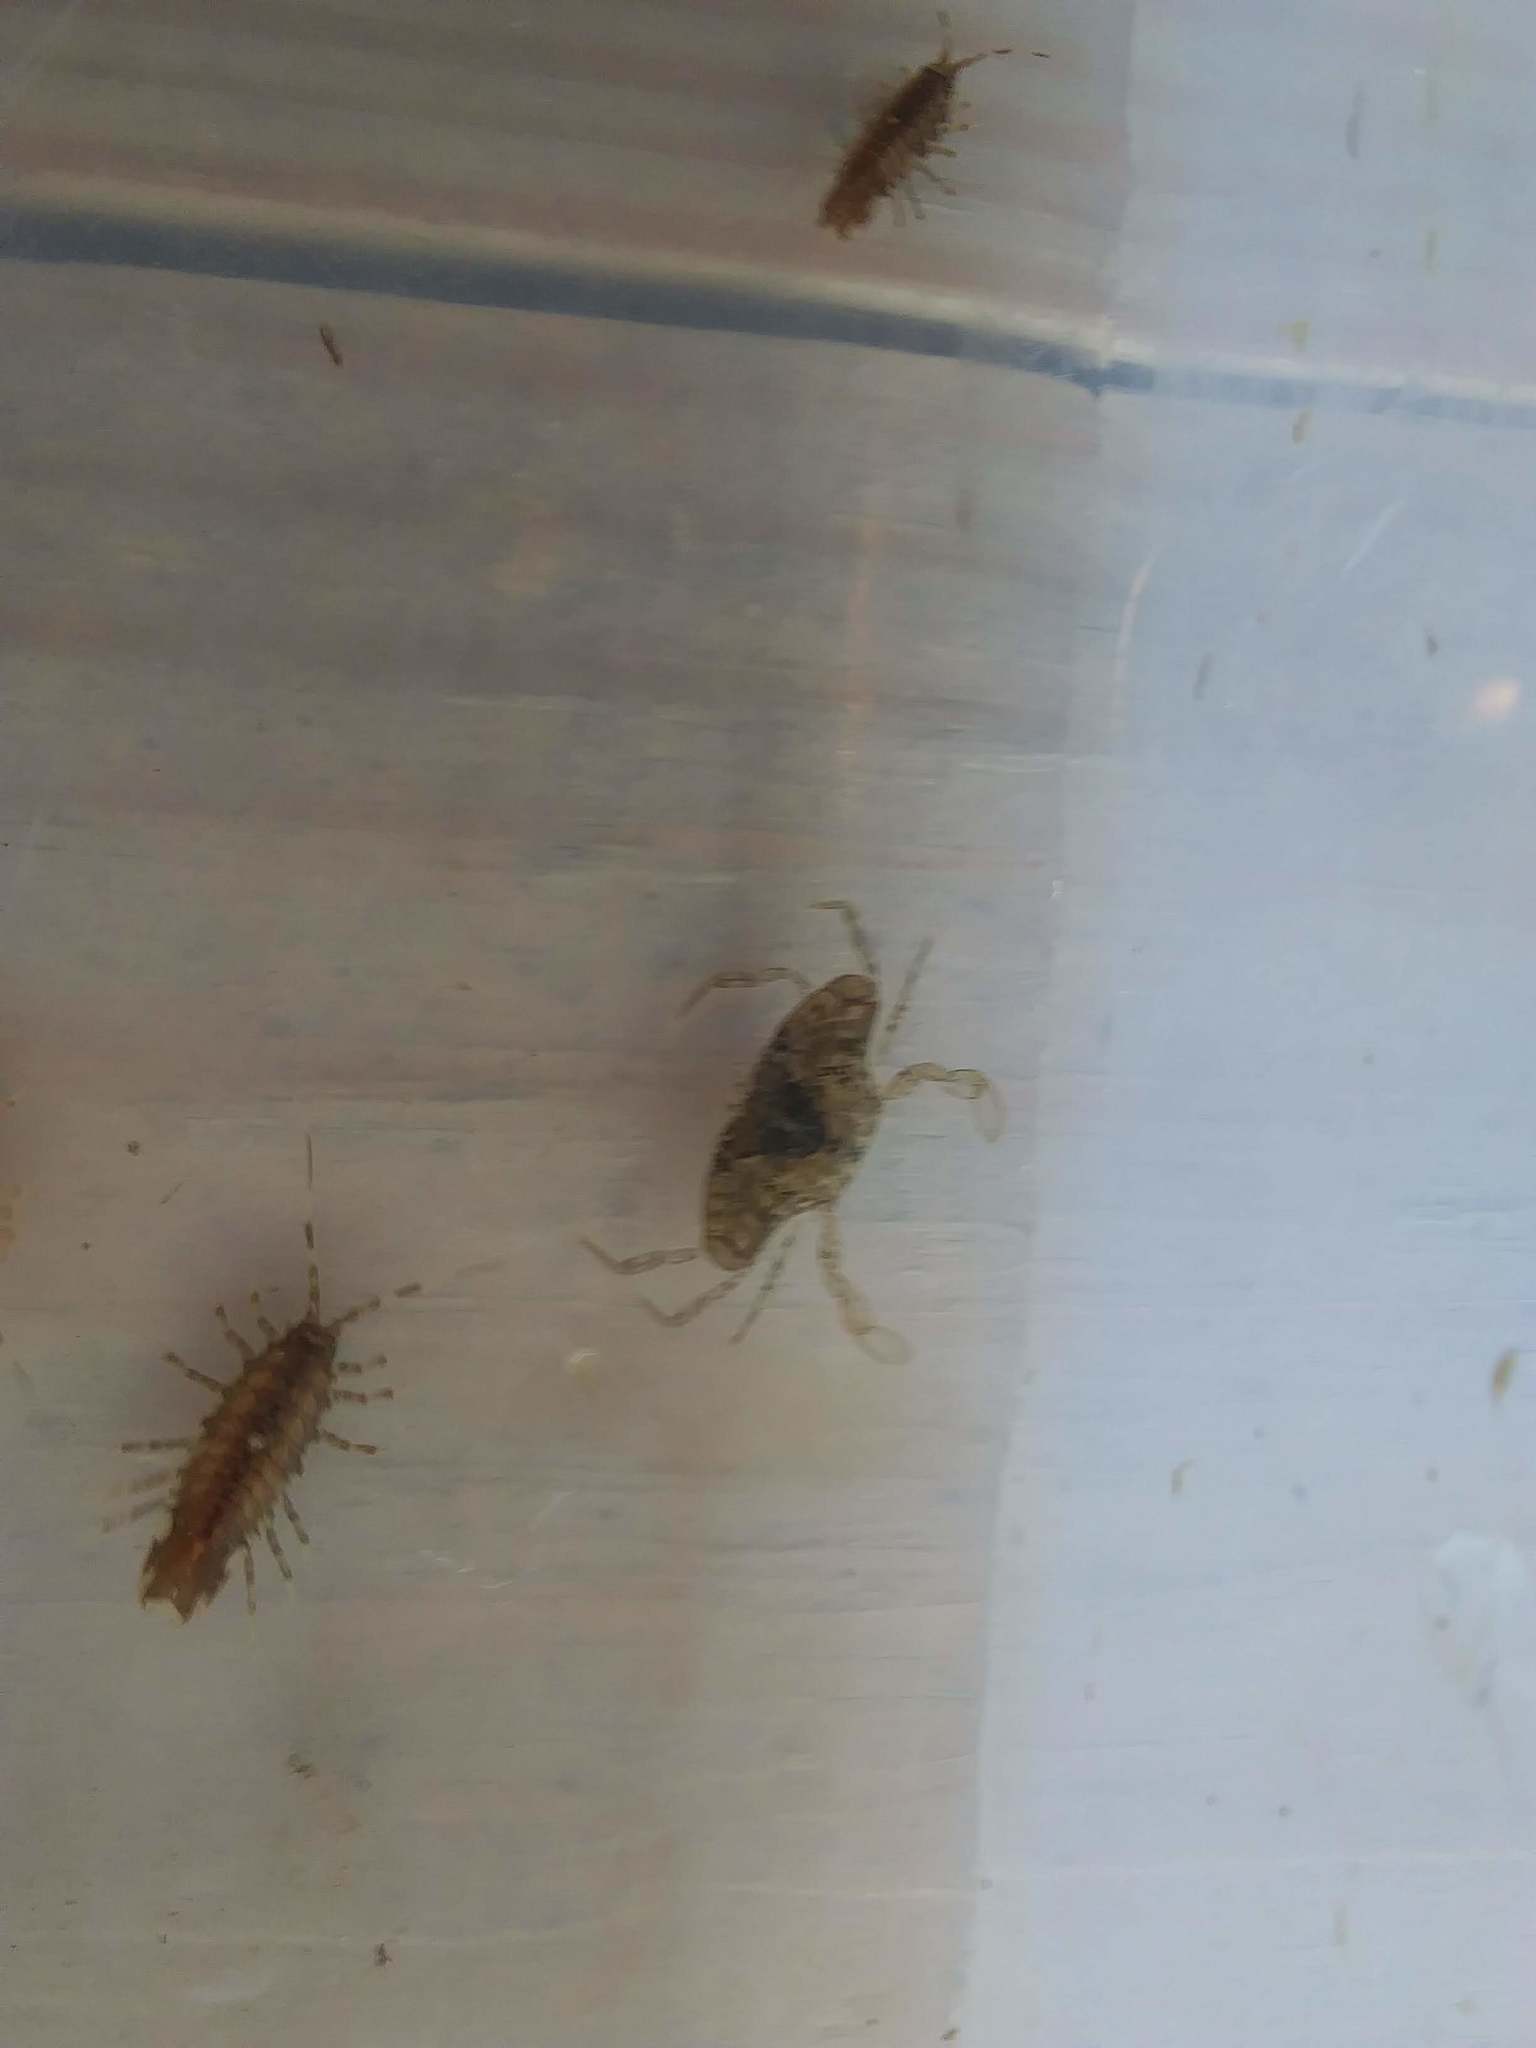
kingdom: Animalia
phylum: Arthropoda
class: Malacostraca
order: Decapoda
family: Portunidae
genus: Callinectes
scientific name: Callinectes sapidus
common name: Blue crab
